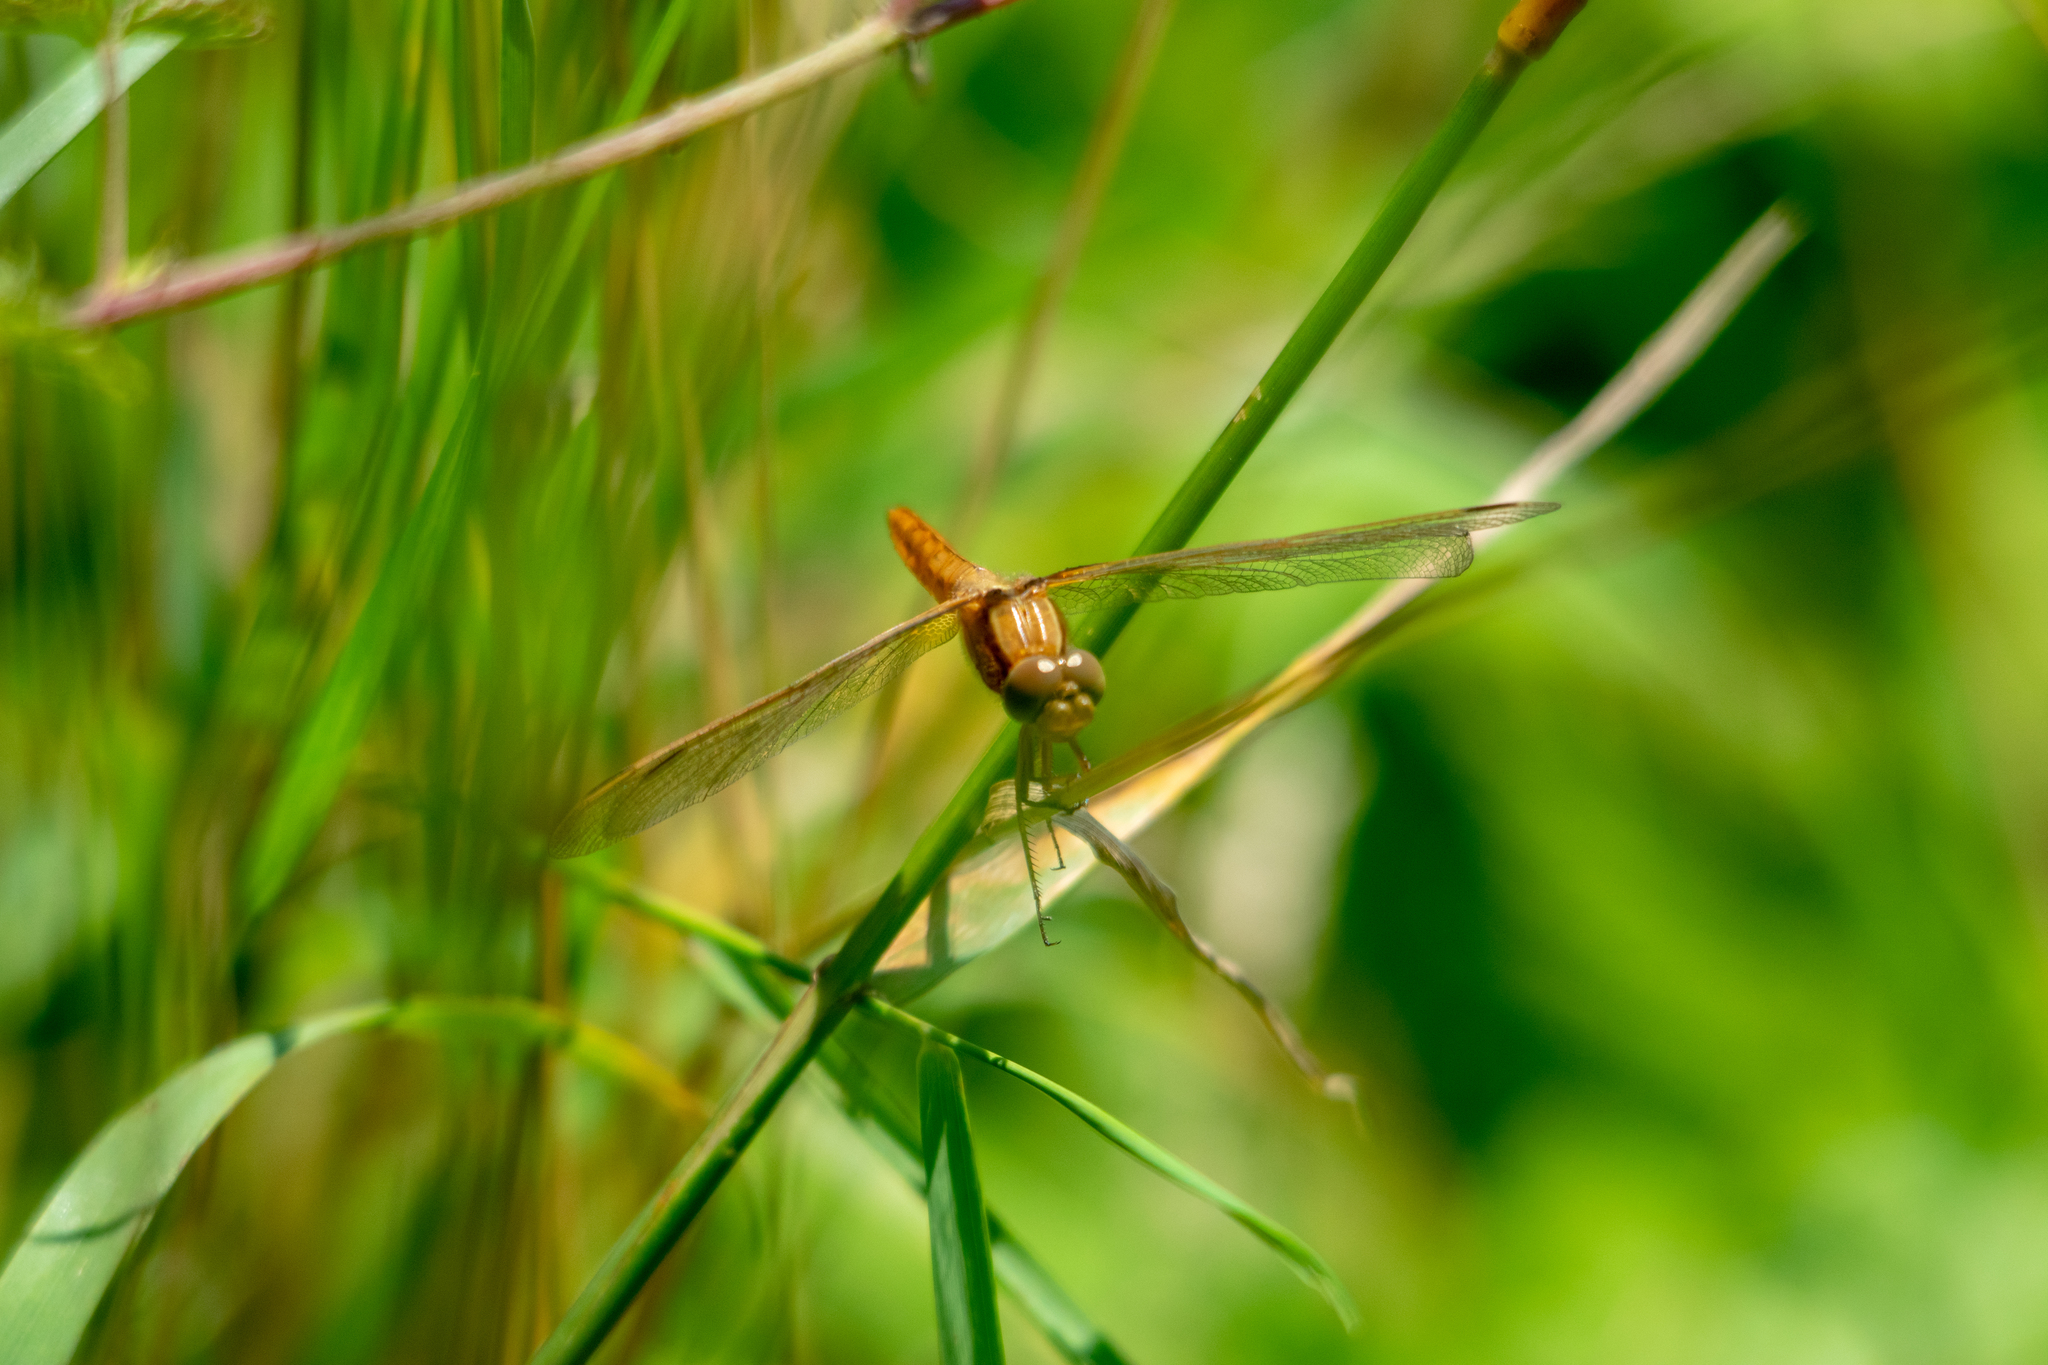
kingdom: Animalia
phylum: Arthropoda
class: Insecta
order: Odonata
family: Libellulidae
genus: Crocothemis
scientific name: Crocothemis erythraea
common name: Scarlet dragonfly
